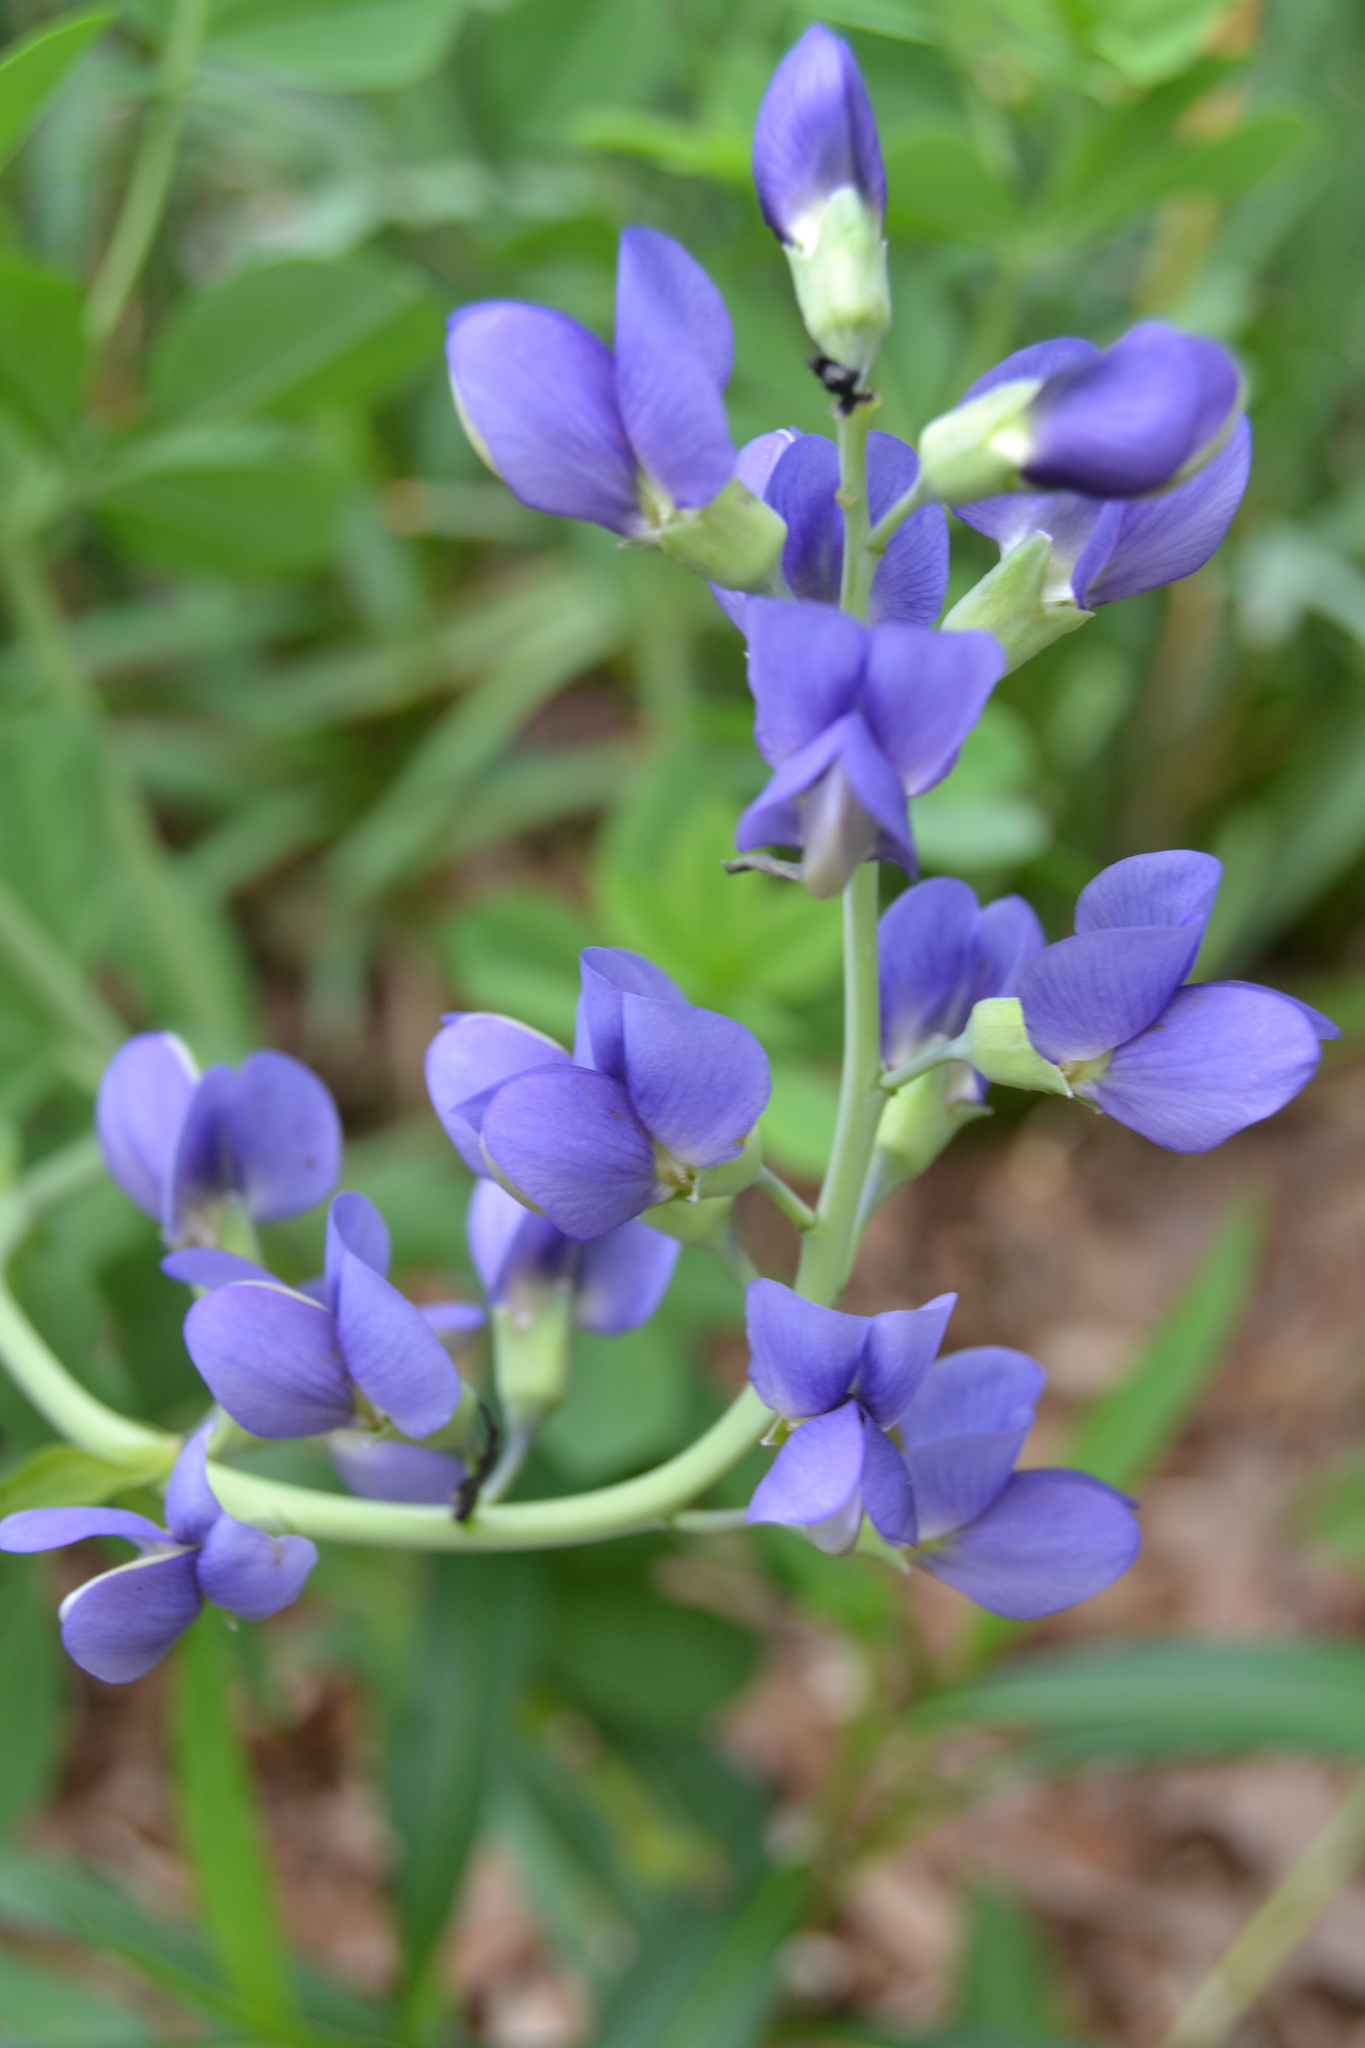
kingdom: Plantae
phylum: Tracheophyta
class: Magnoliopsida
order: Fabales
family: Fabaceae
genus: Baptisia
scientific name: Baptisia australis
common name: Blue false indigo
